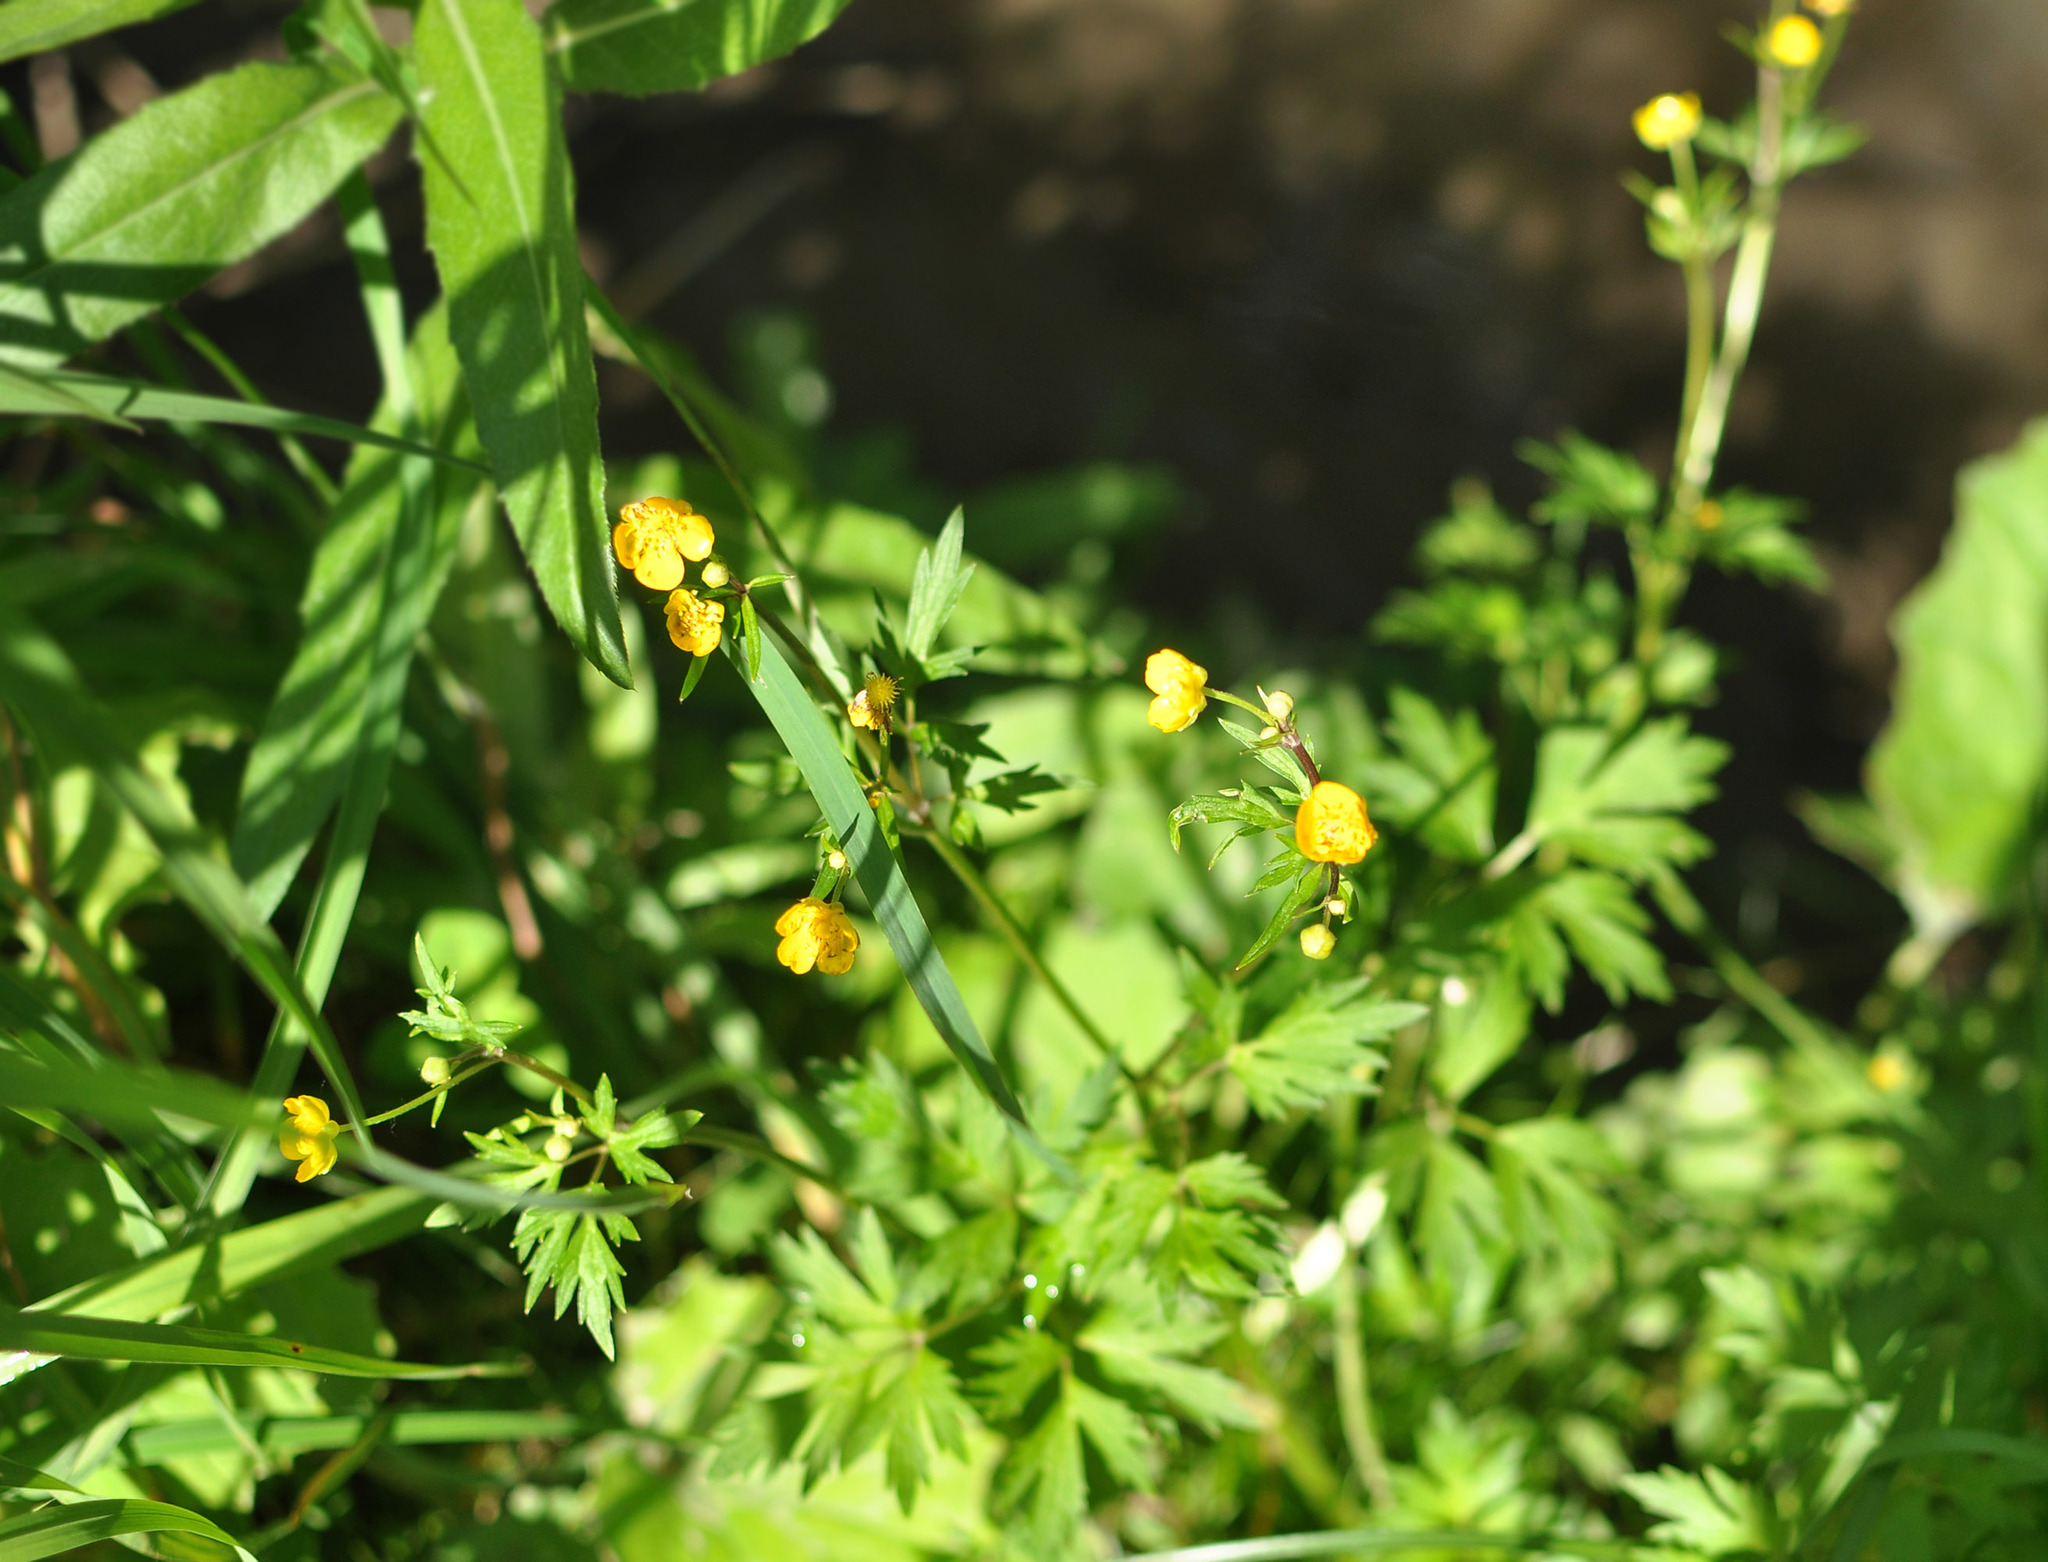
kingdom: Plantae
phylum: Tracheophyta
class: Magnoliopsida
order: Ranunculales
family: Ranunculaceae
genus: Ranunculus
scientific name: Ranunculus repens
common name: Creeping buttercup
